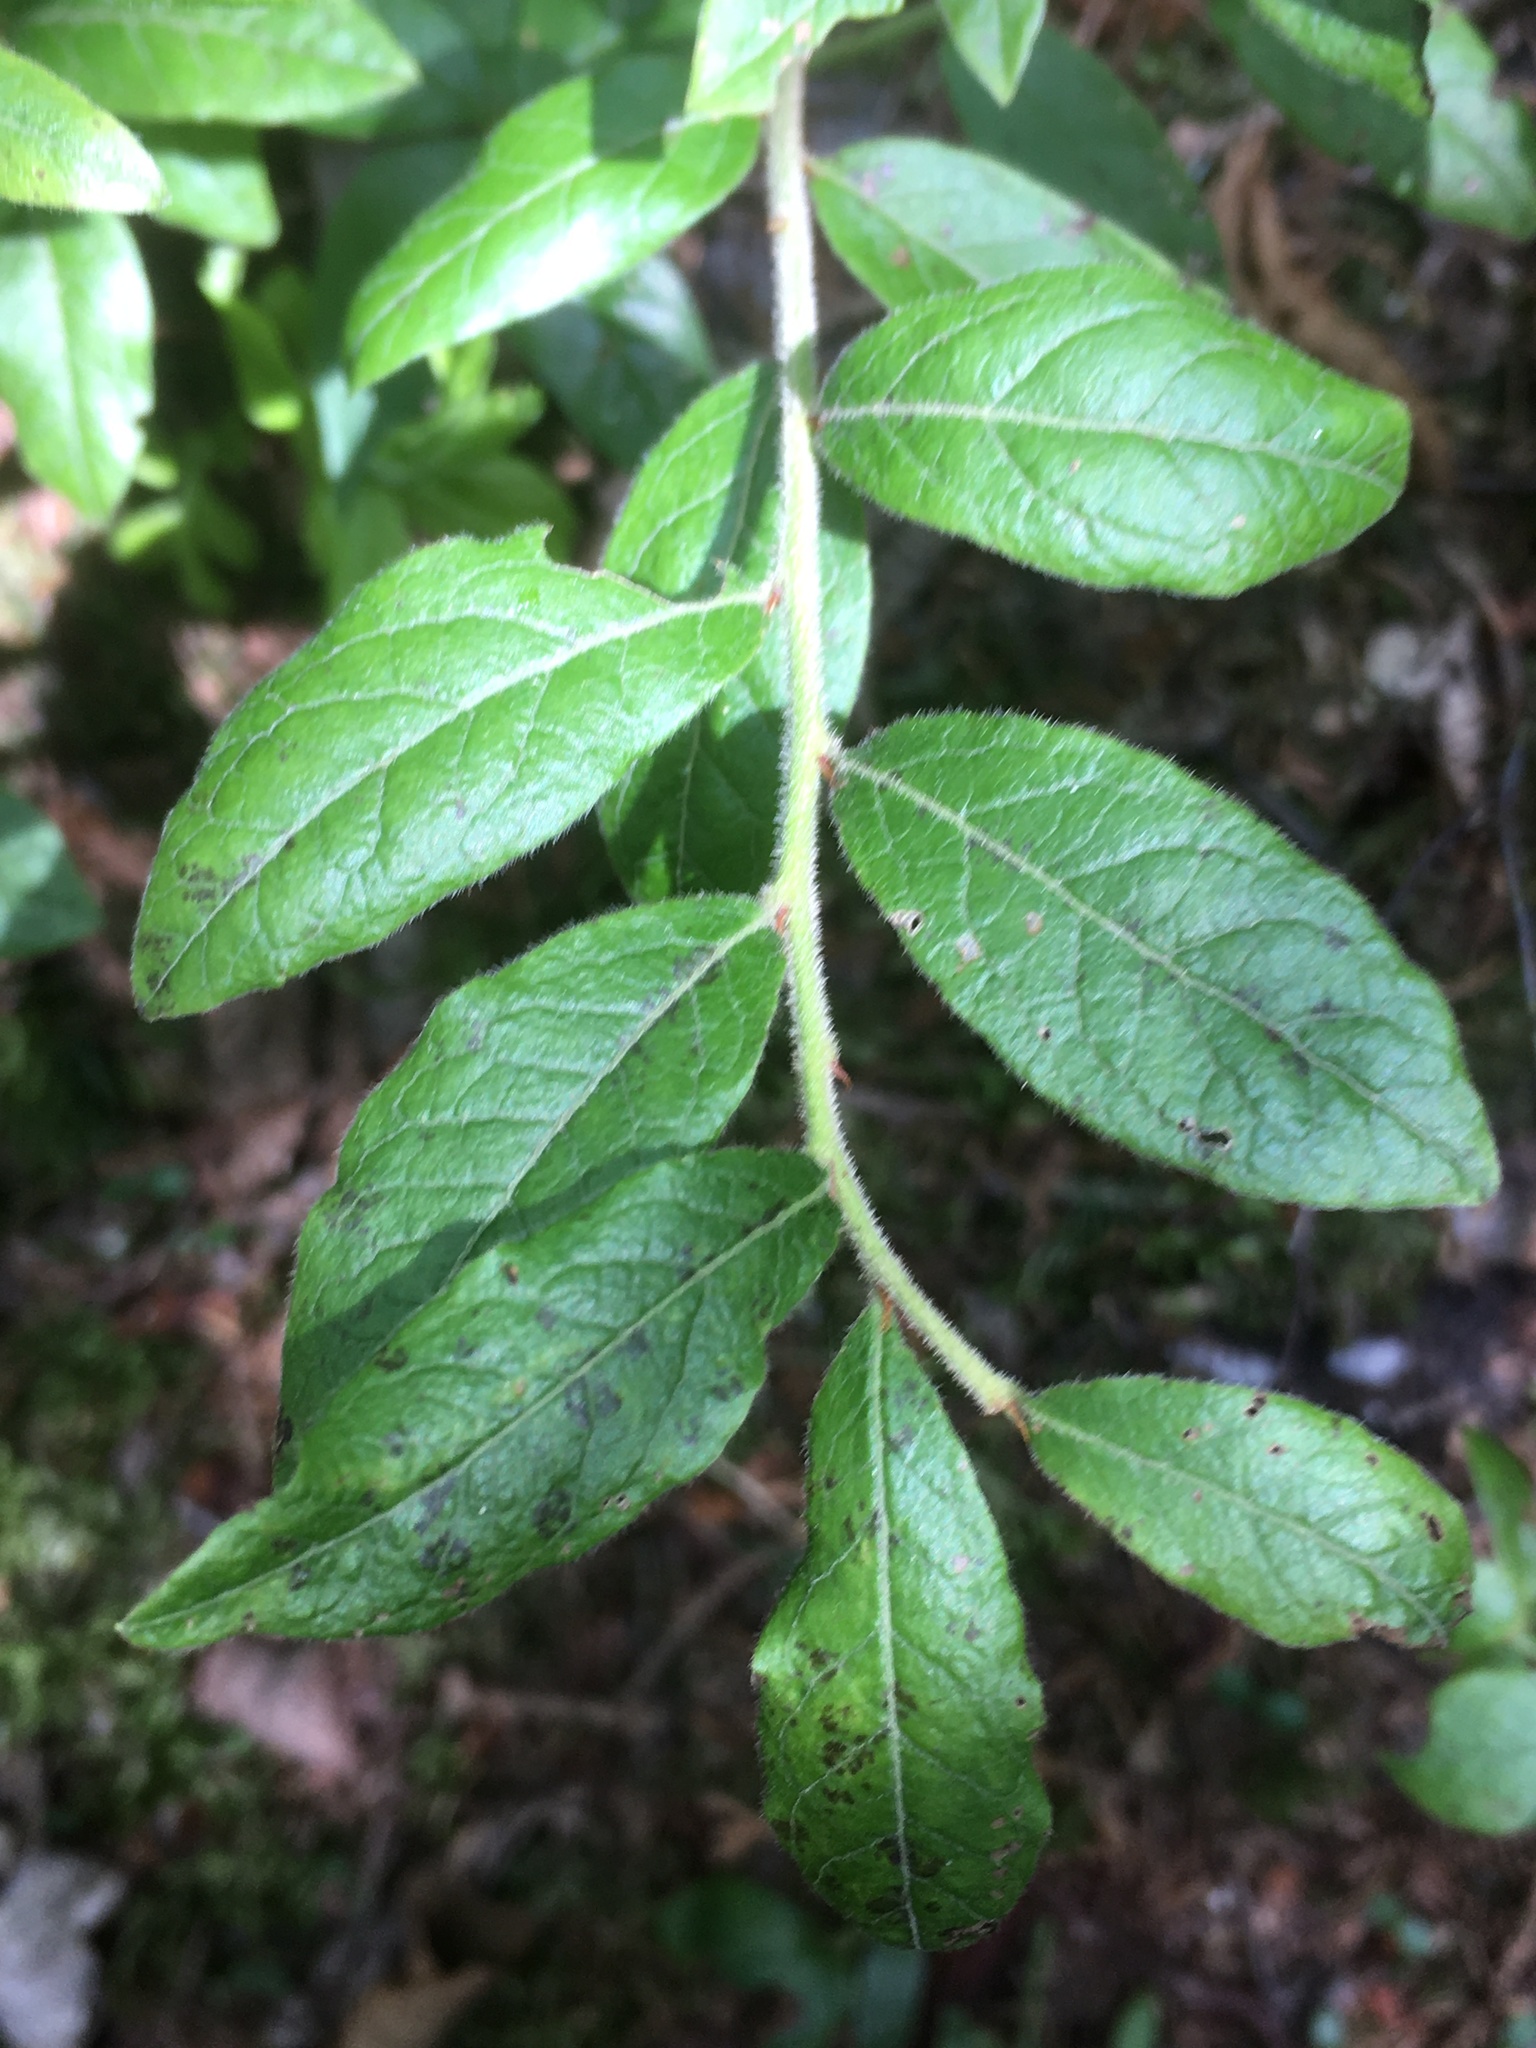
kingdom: Plantae
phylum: Tracheophyta
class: Magnoliopsida
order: Ericales
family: Ericaceae
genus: Vaccinium
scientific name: Vaccinium myrtilloides
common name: Canada blueberry
